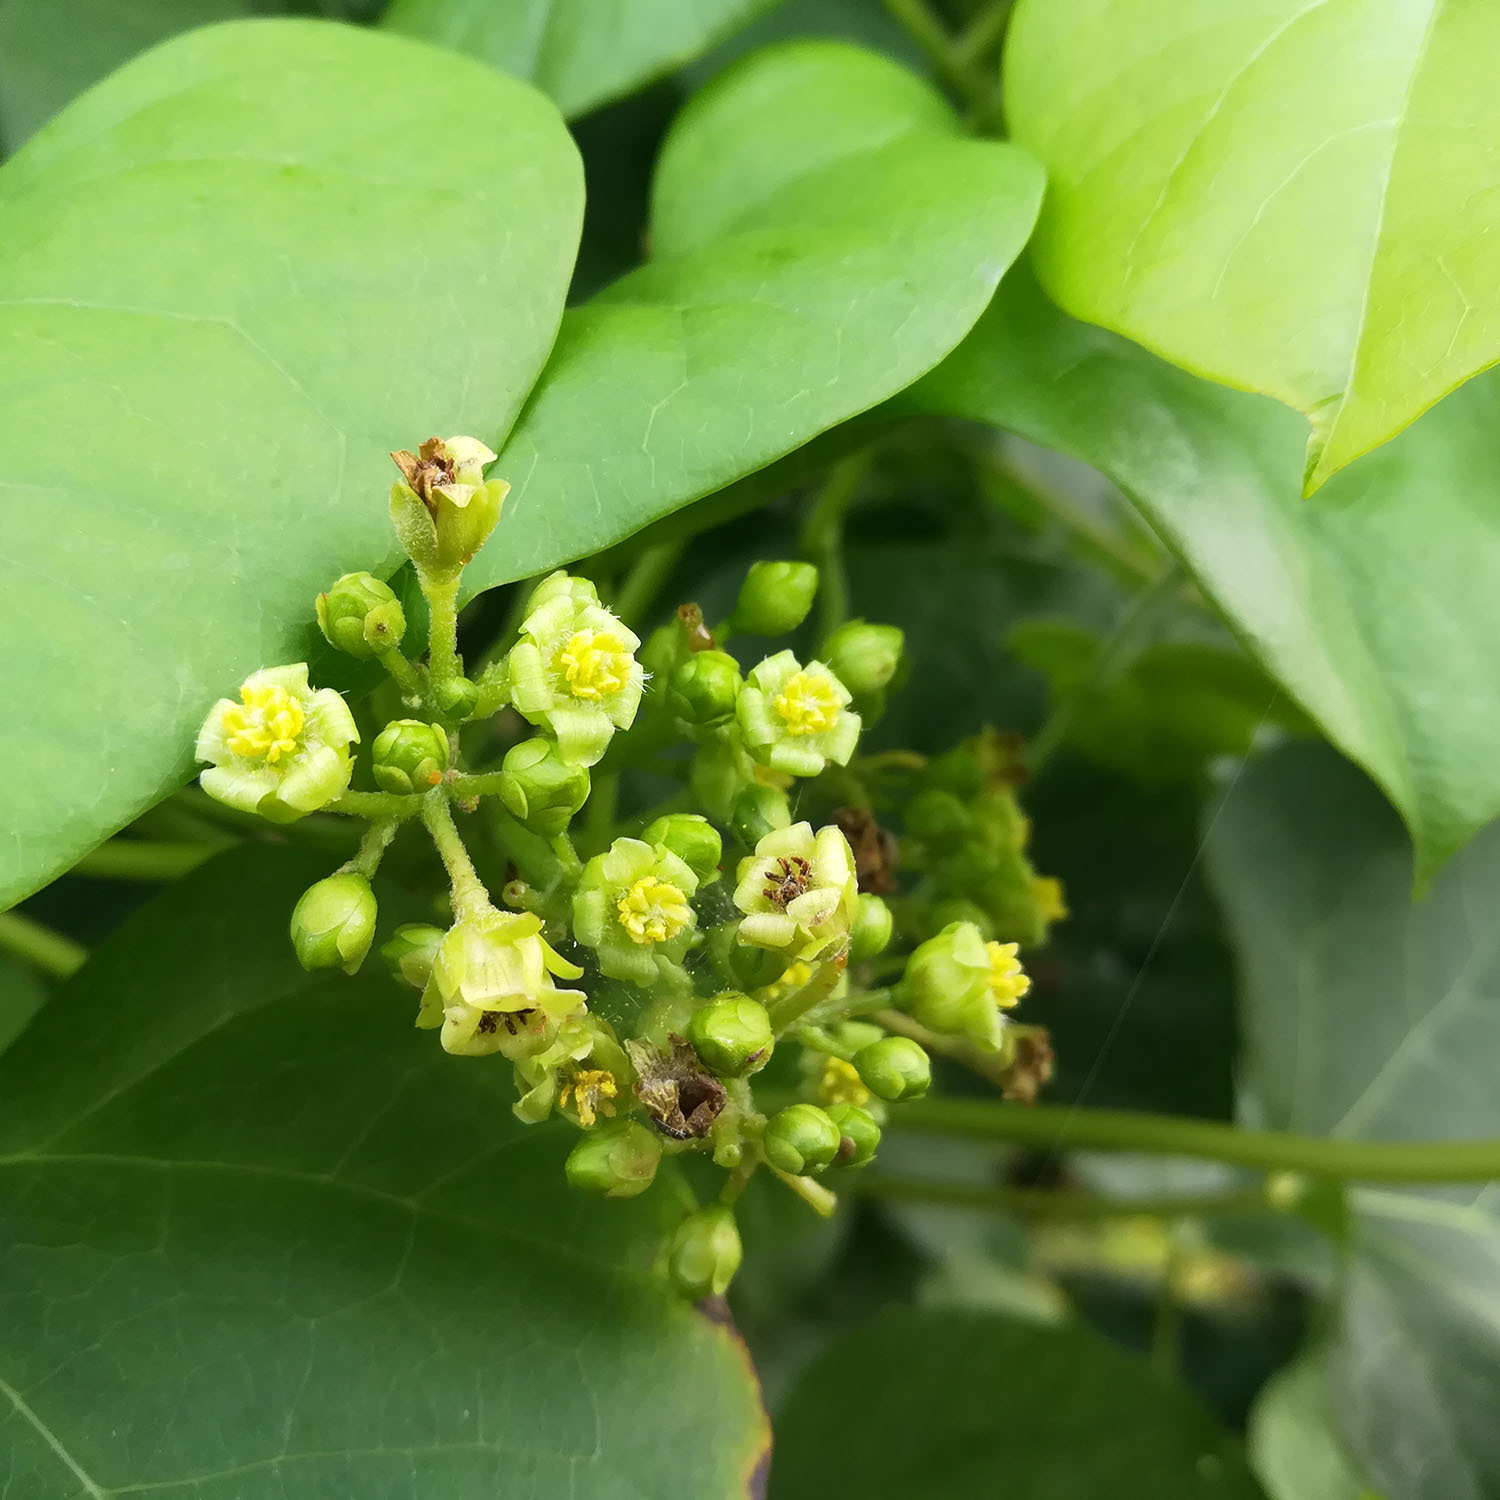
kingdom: Plantae
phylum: Tracheophyta
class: Magnoliopsida
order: Malpighiales
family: Euphorbiaceae
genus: Jatropha
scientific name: Jatropha curcas
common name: Barbados nut
